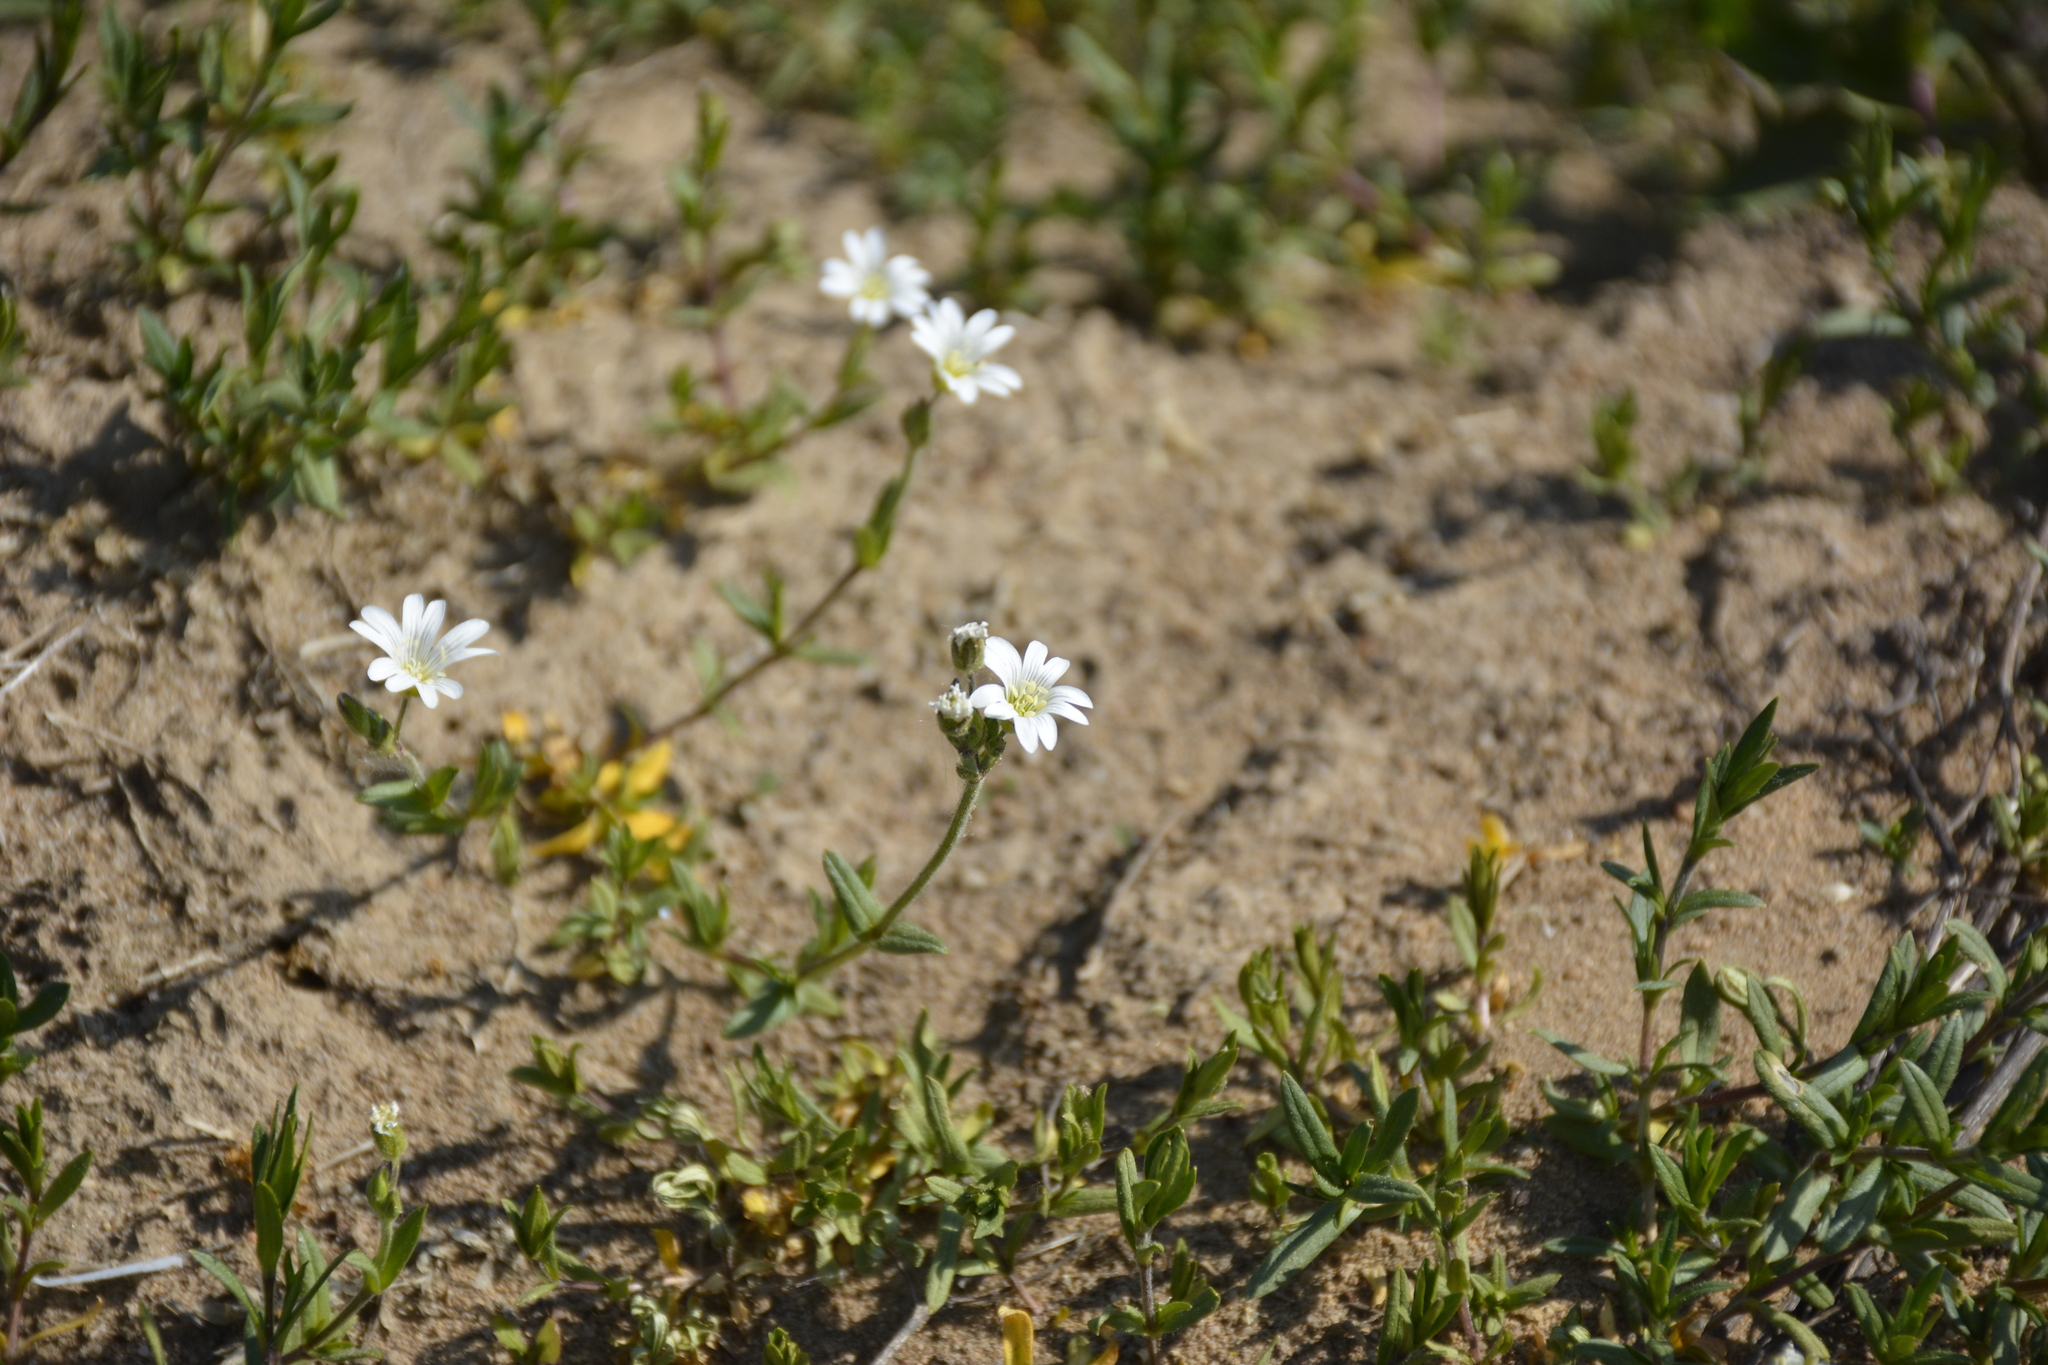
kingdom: Plantae
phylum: Tracheophyta
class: Magnoliopsida
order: Caryophyllales
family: Caryophyllaceae
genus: Cerastium
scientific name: Cerastium arvense
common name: Field mouse-ear
